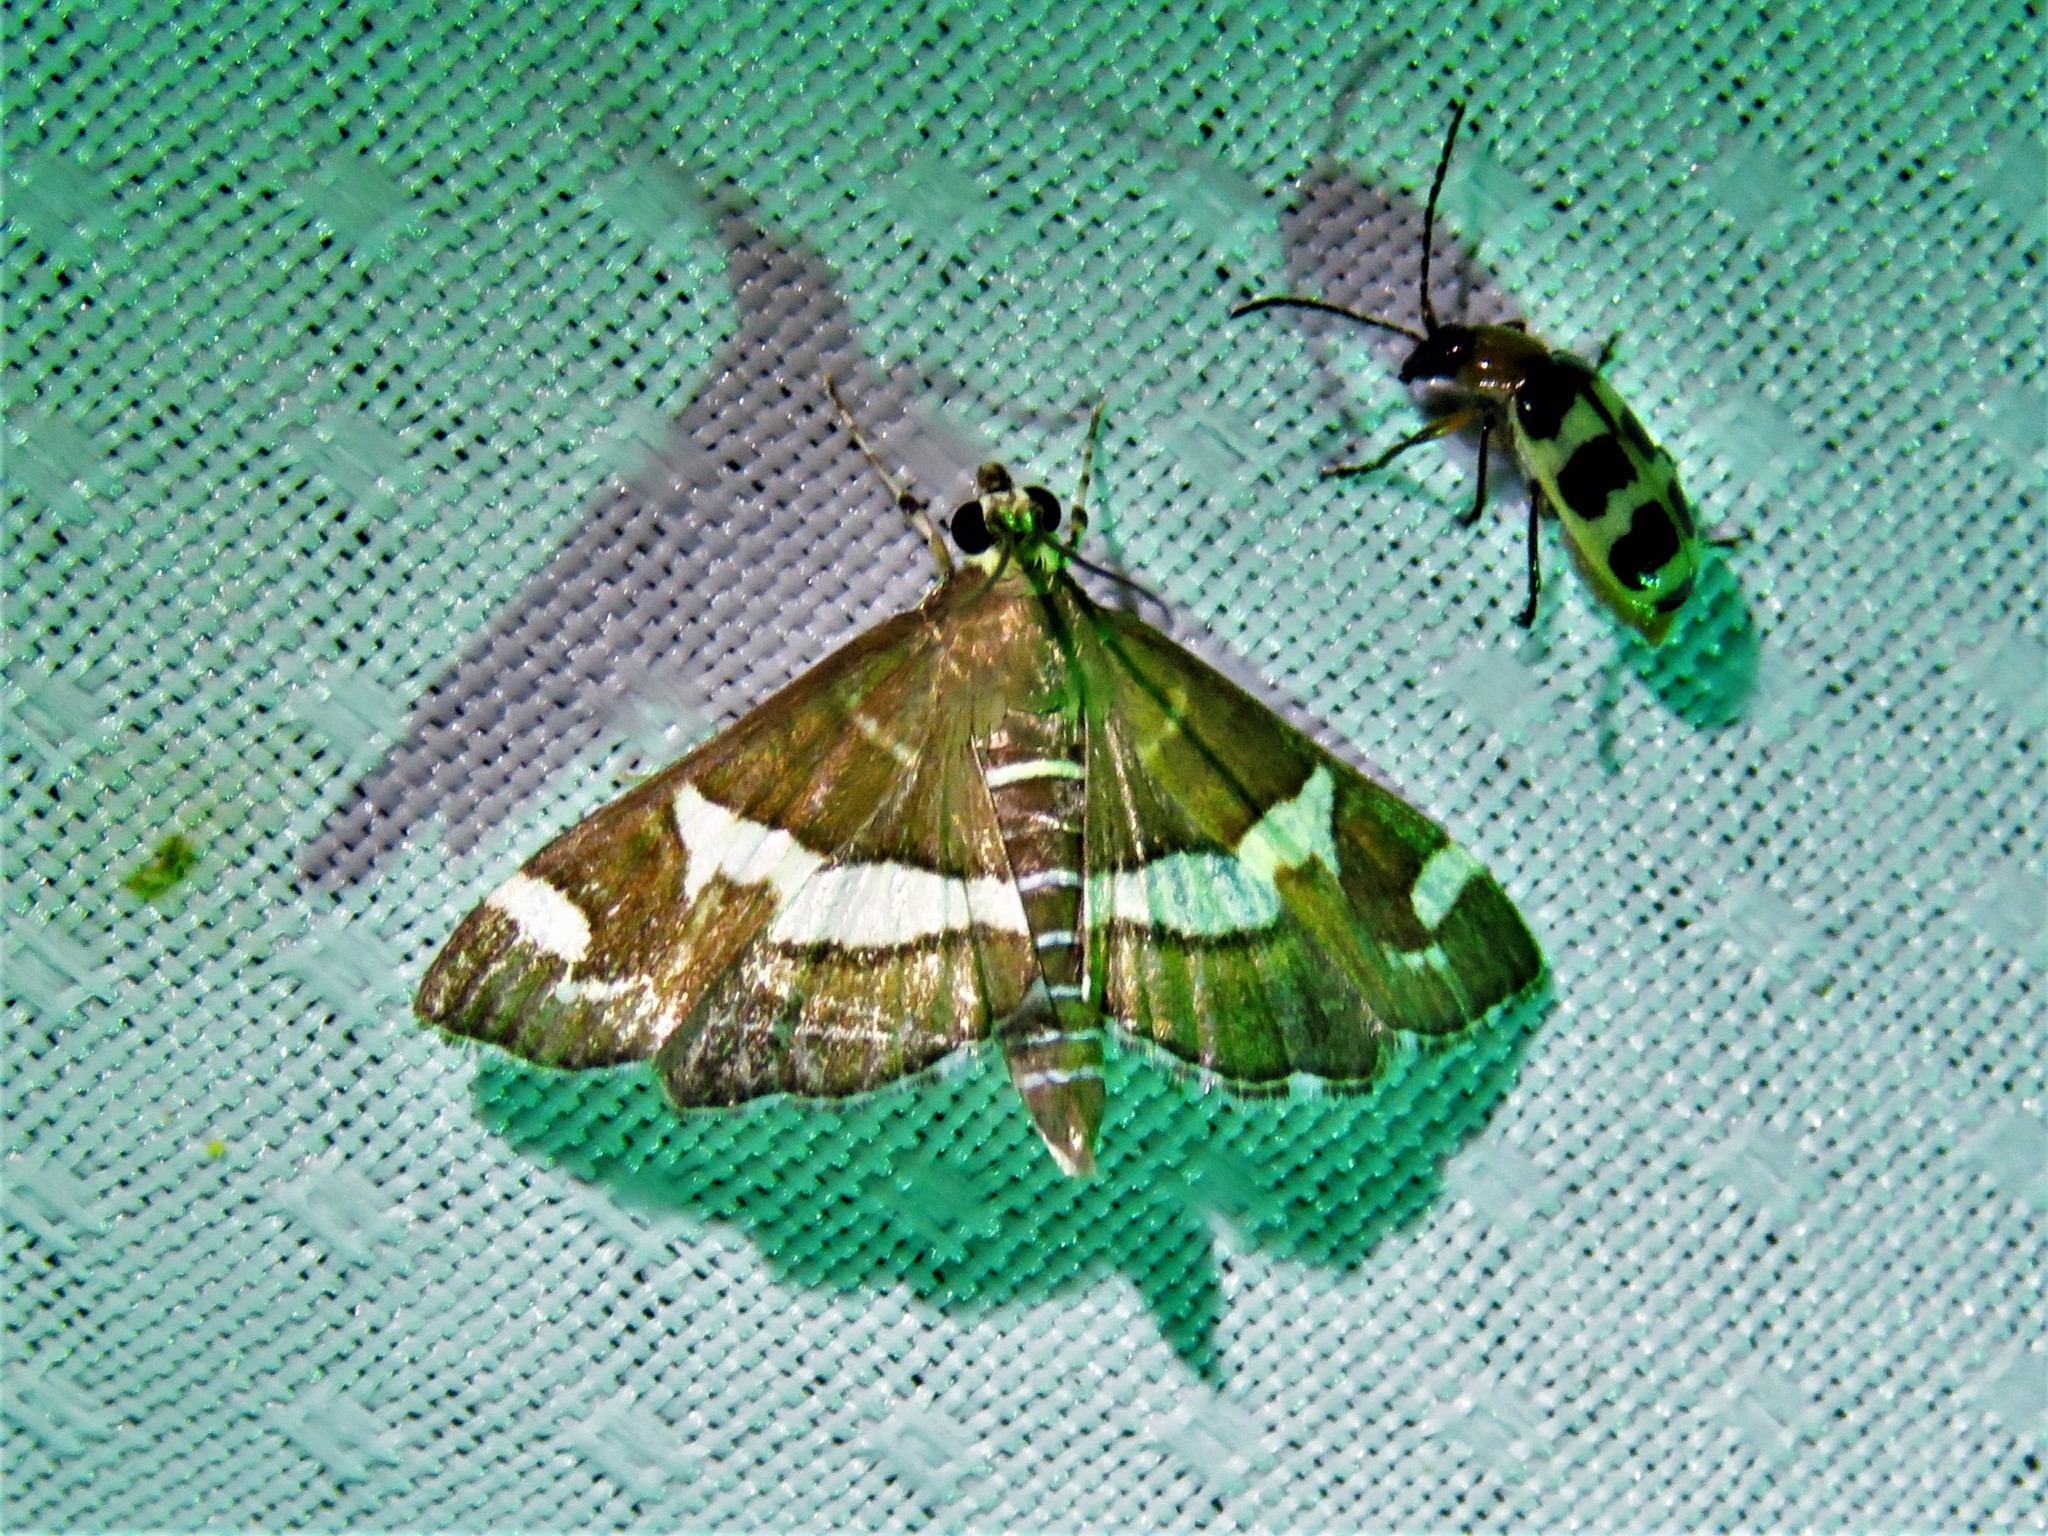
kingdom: Animalia
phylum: Arthropoda
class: Insecta
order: Lepidoptera
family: Crambidae
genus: Spoladea
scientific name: Spoladea recurvalis
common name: Beet webworm moth
